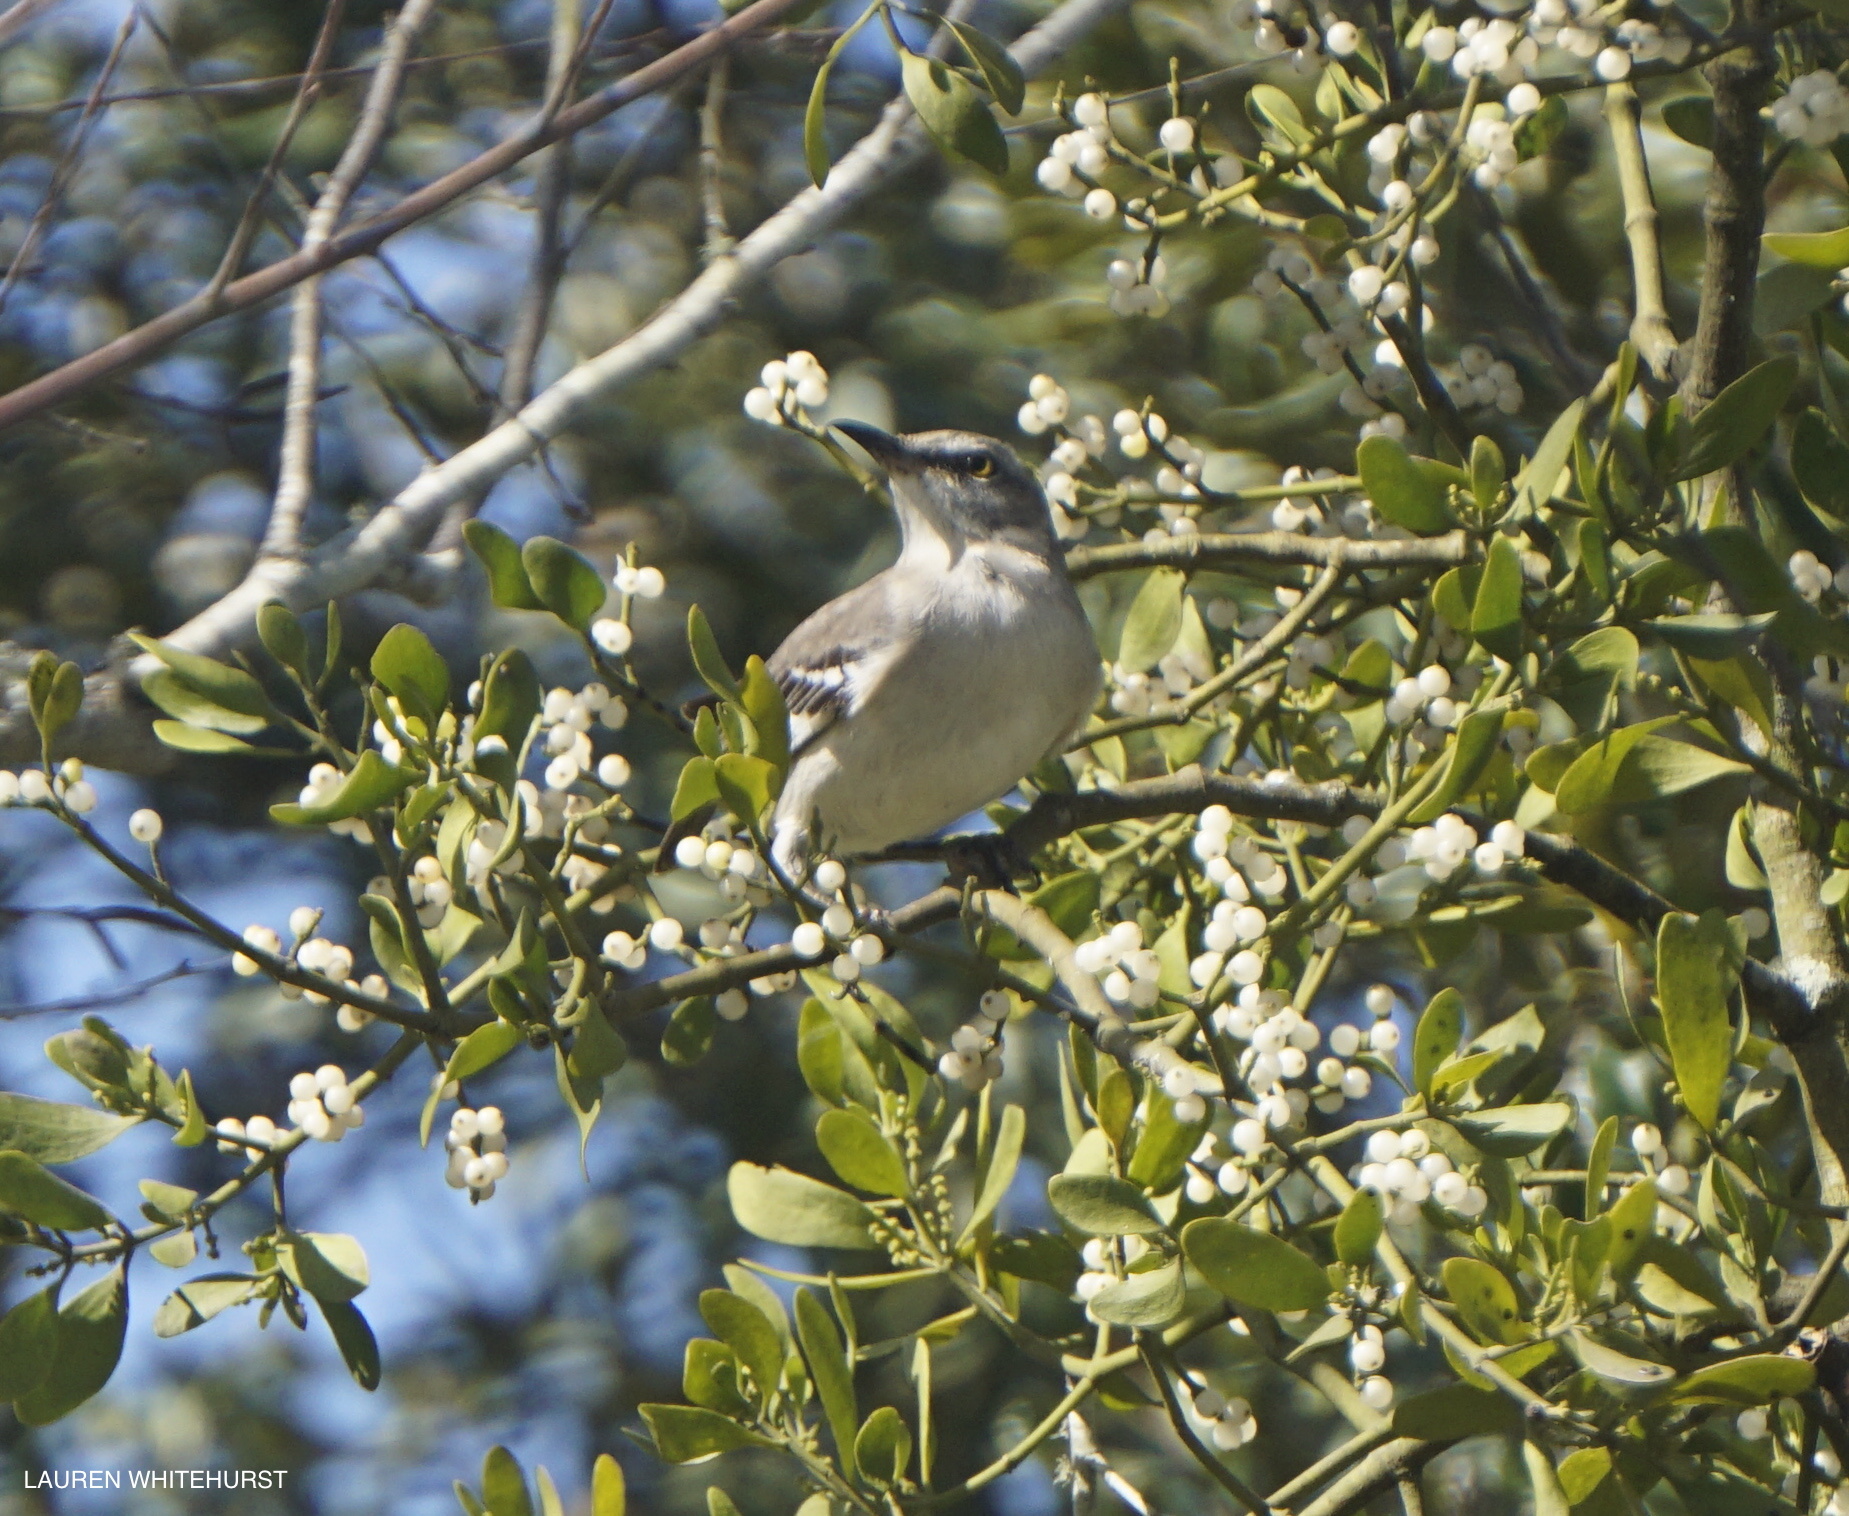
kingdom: Animalia
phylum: Chordata
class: Aves
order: Passeriformes
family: Mimidae
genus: Mimus
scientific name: Mimus polyglottos
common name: Northern mockingbird
